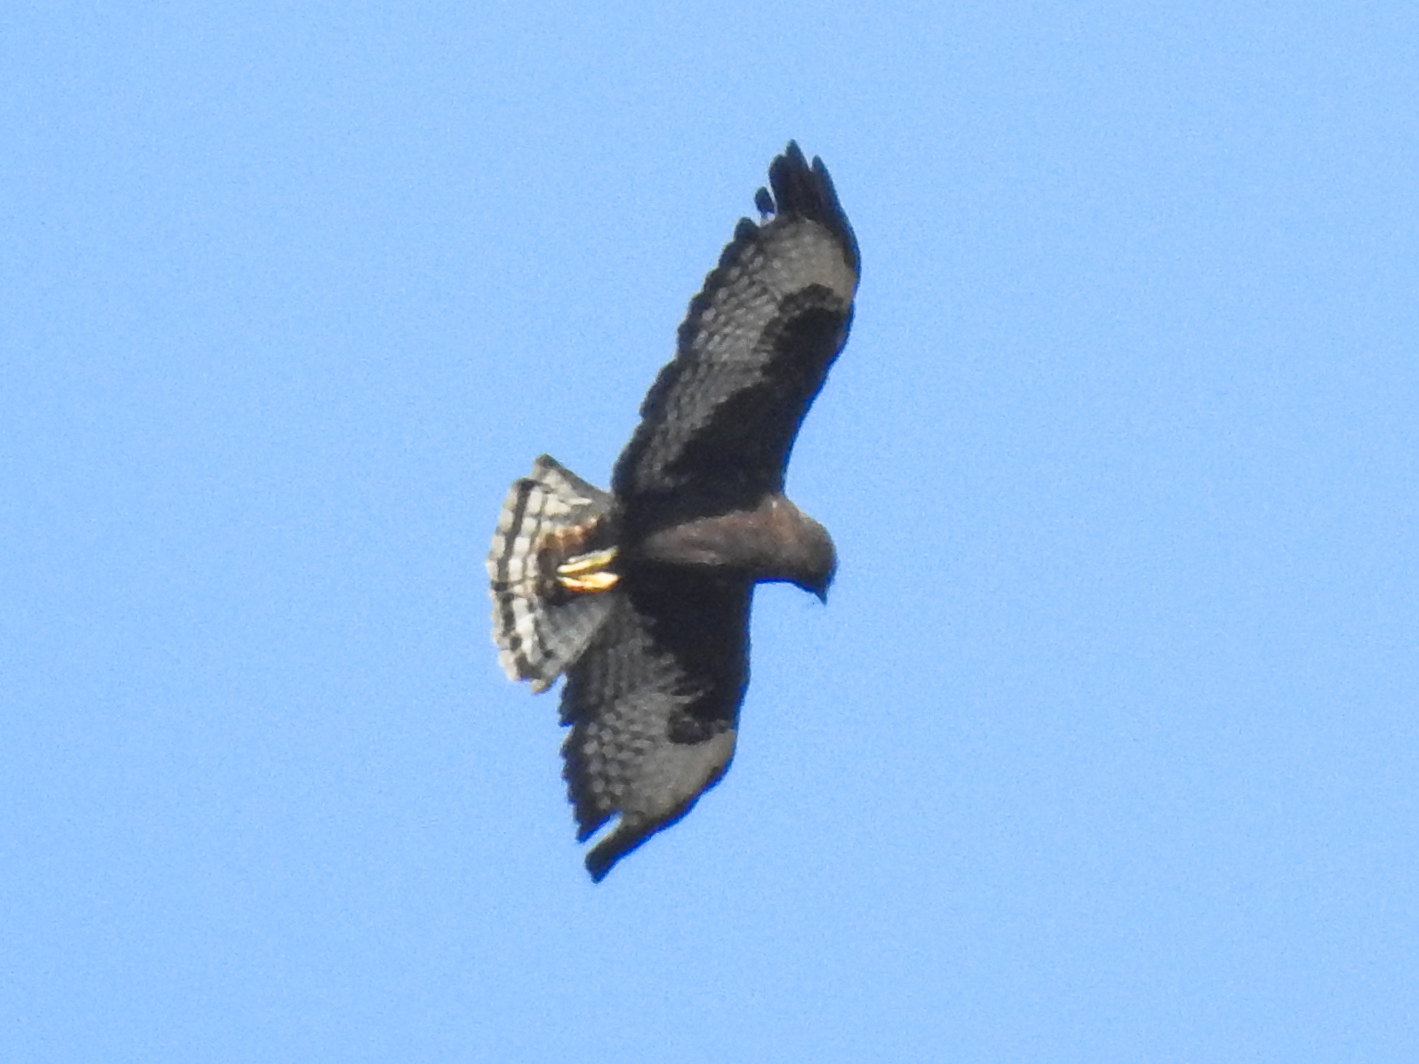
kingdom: Animalia
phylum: Chordata
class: Aves
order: Accipitriformes
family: Accipitridae
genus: Buteo
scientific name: Buteo brachyurus
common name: Short-tailed hawk
